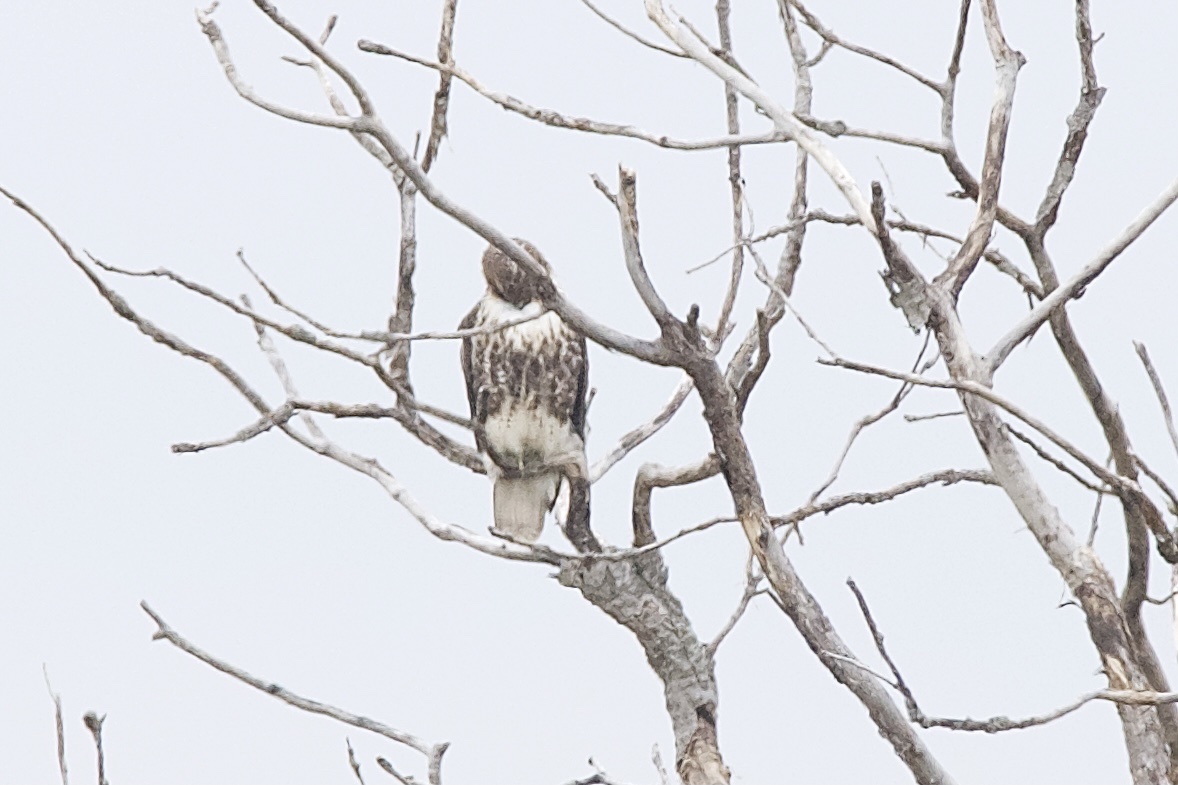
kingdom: Animalia
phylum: Chordata
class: Aves
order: Accipitriformes
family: Accipitridae
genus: Buteo
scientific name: Buteo jamaicensis
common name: Red-tailed hawk
